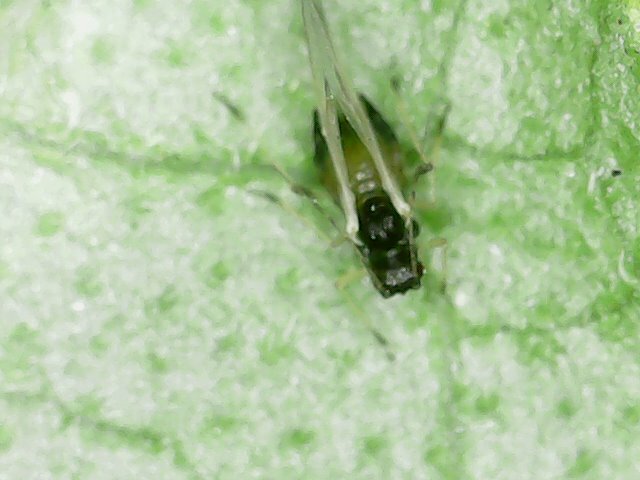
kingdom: Animalia
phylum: Arthropoda
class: Insecta
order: Hemiptera
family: Aphididae
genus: Aphis
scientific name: Aphis gossypii
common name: Melon aphid
